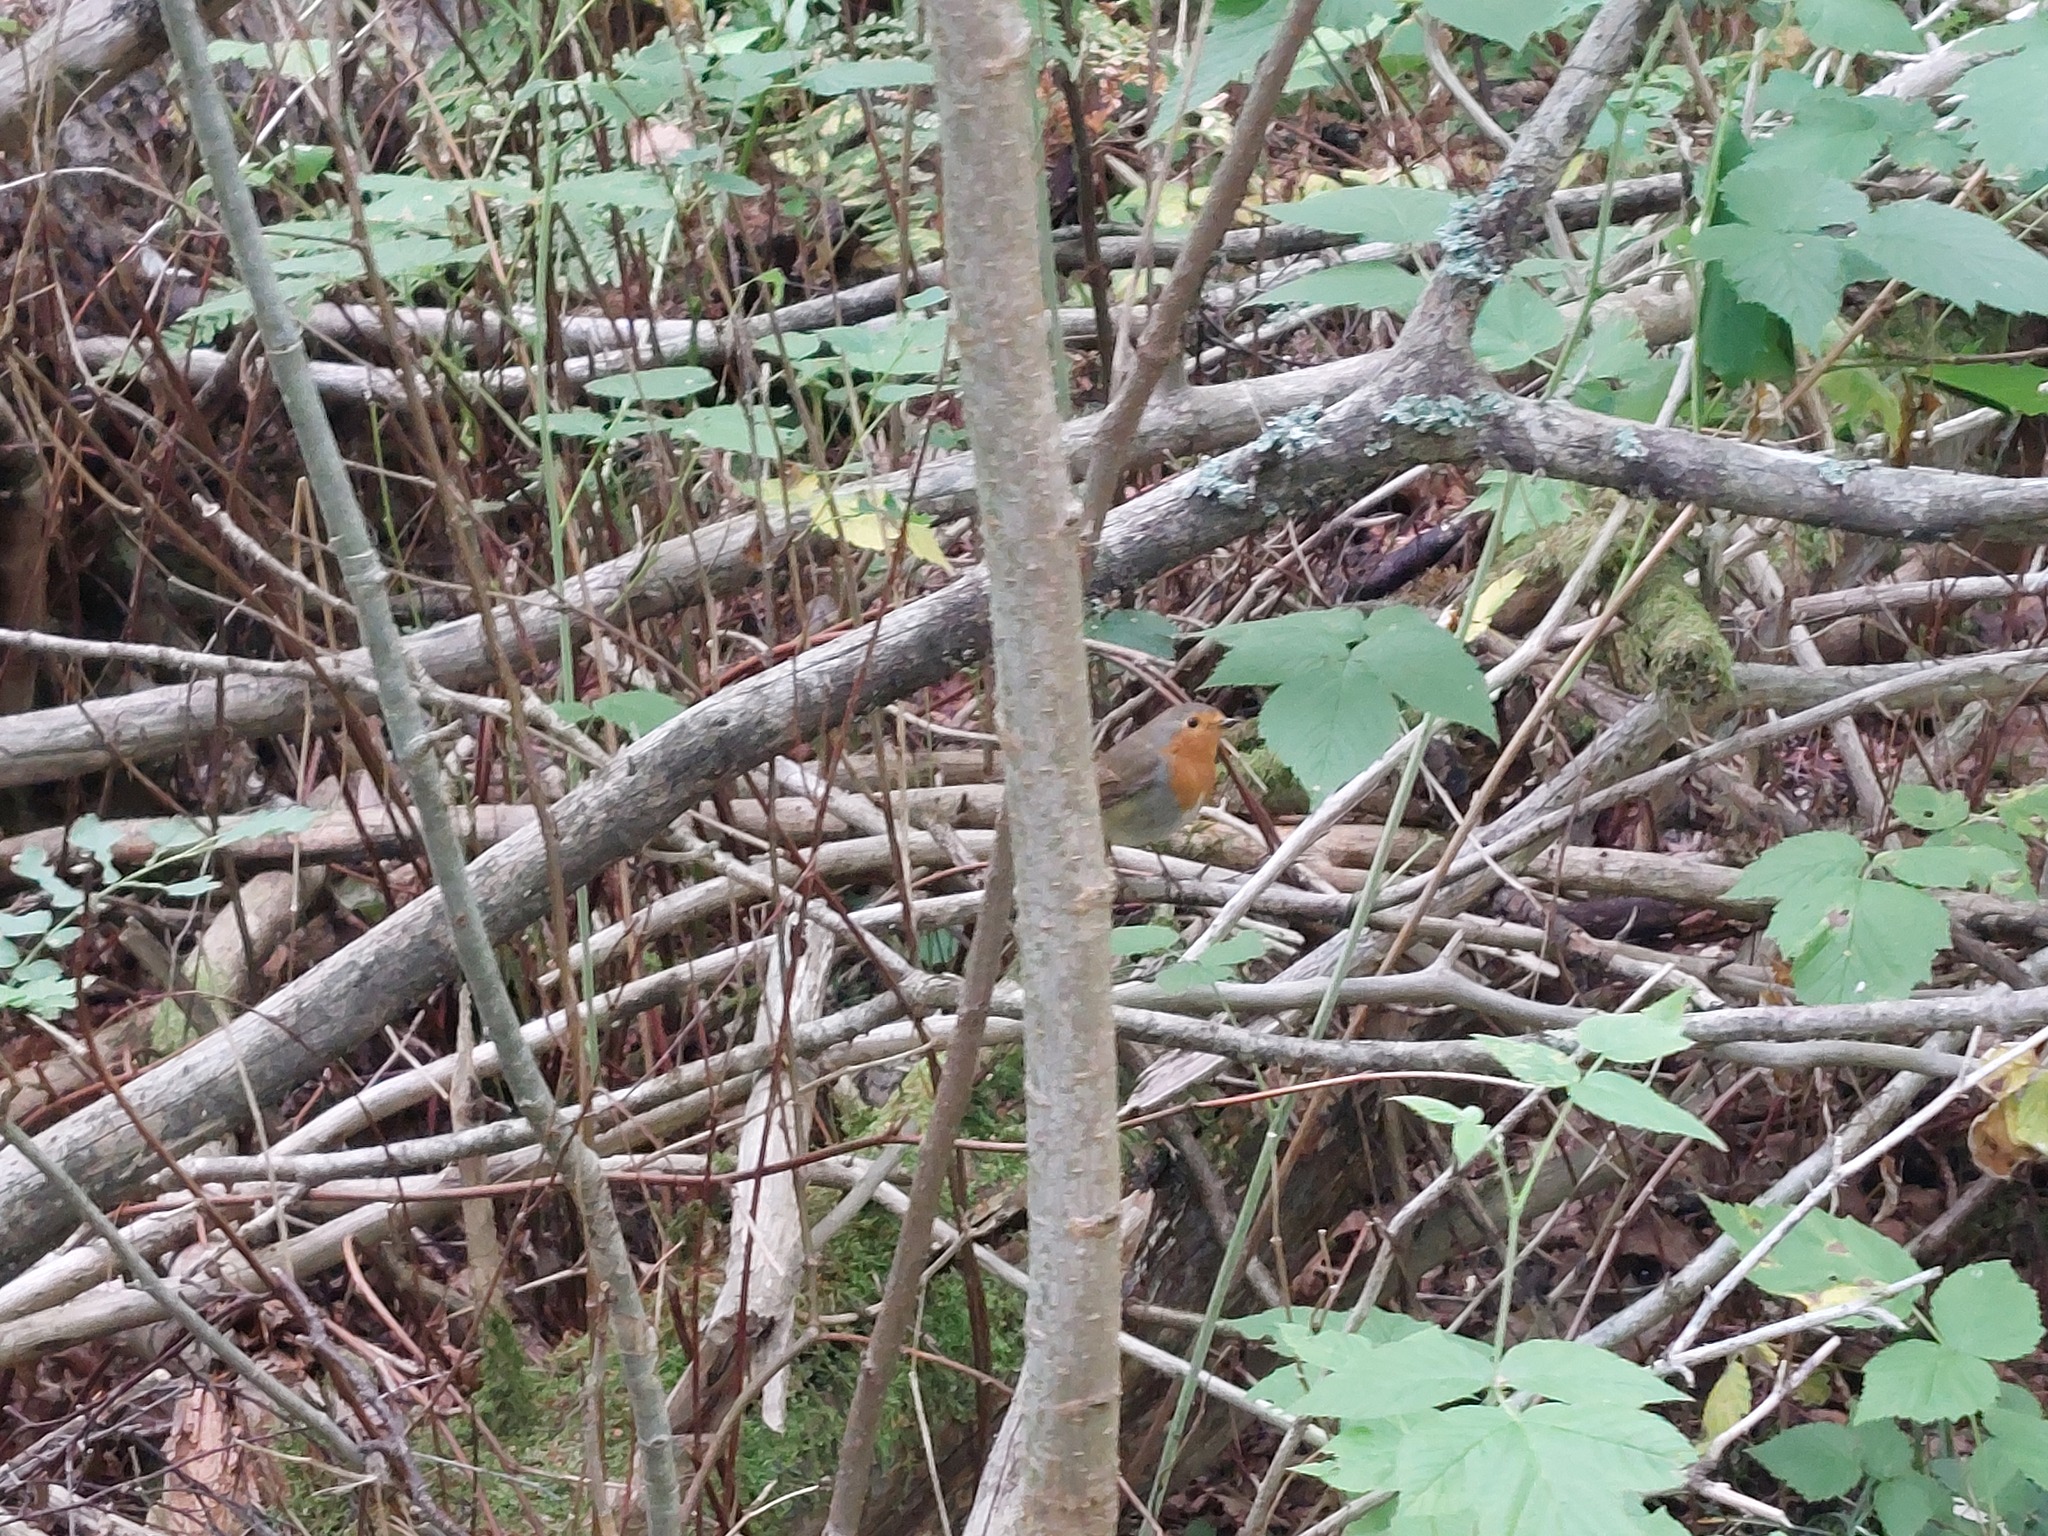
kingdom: Animalia
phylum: Chordata
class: Aves
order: Passeriformes
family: Muscicapidae
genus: Erithacus
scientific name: Erithacus rubecula
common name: European robin
